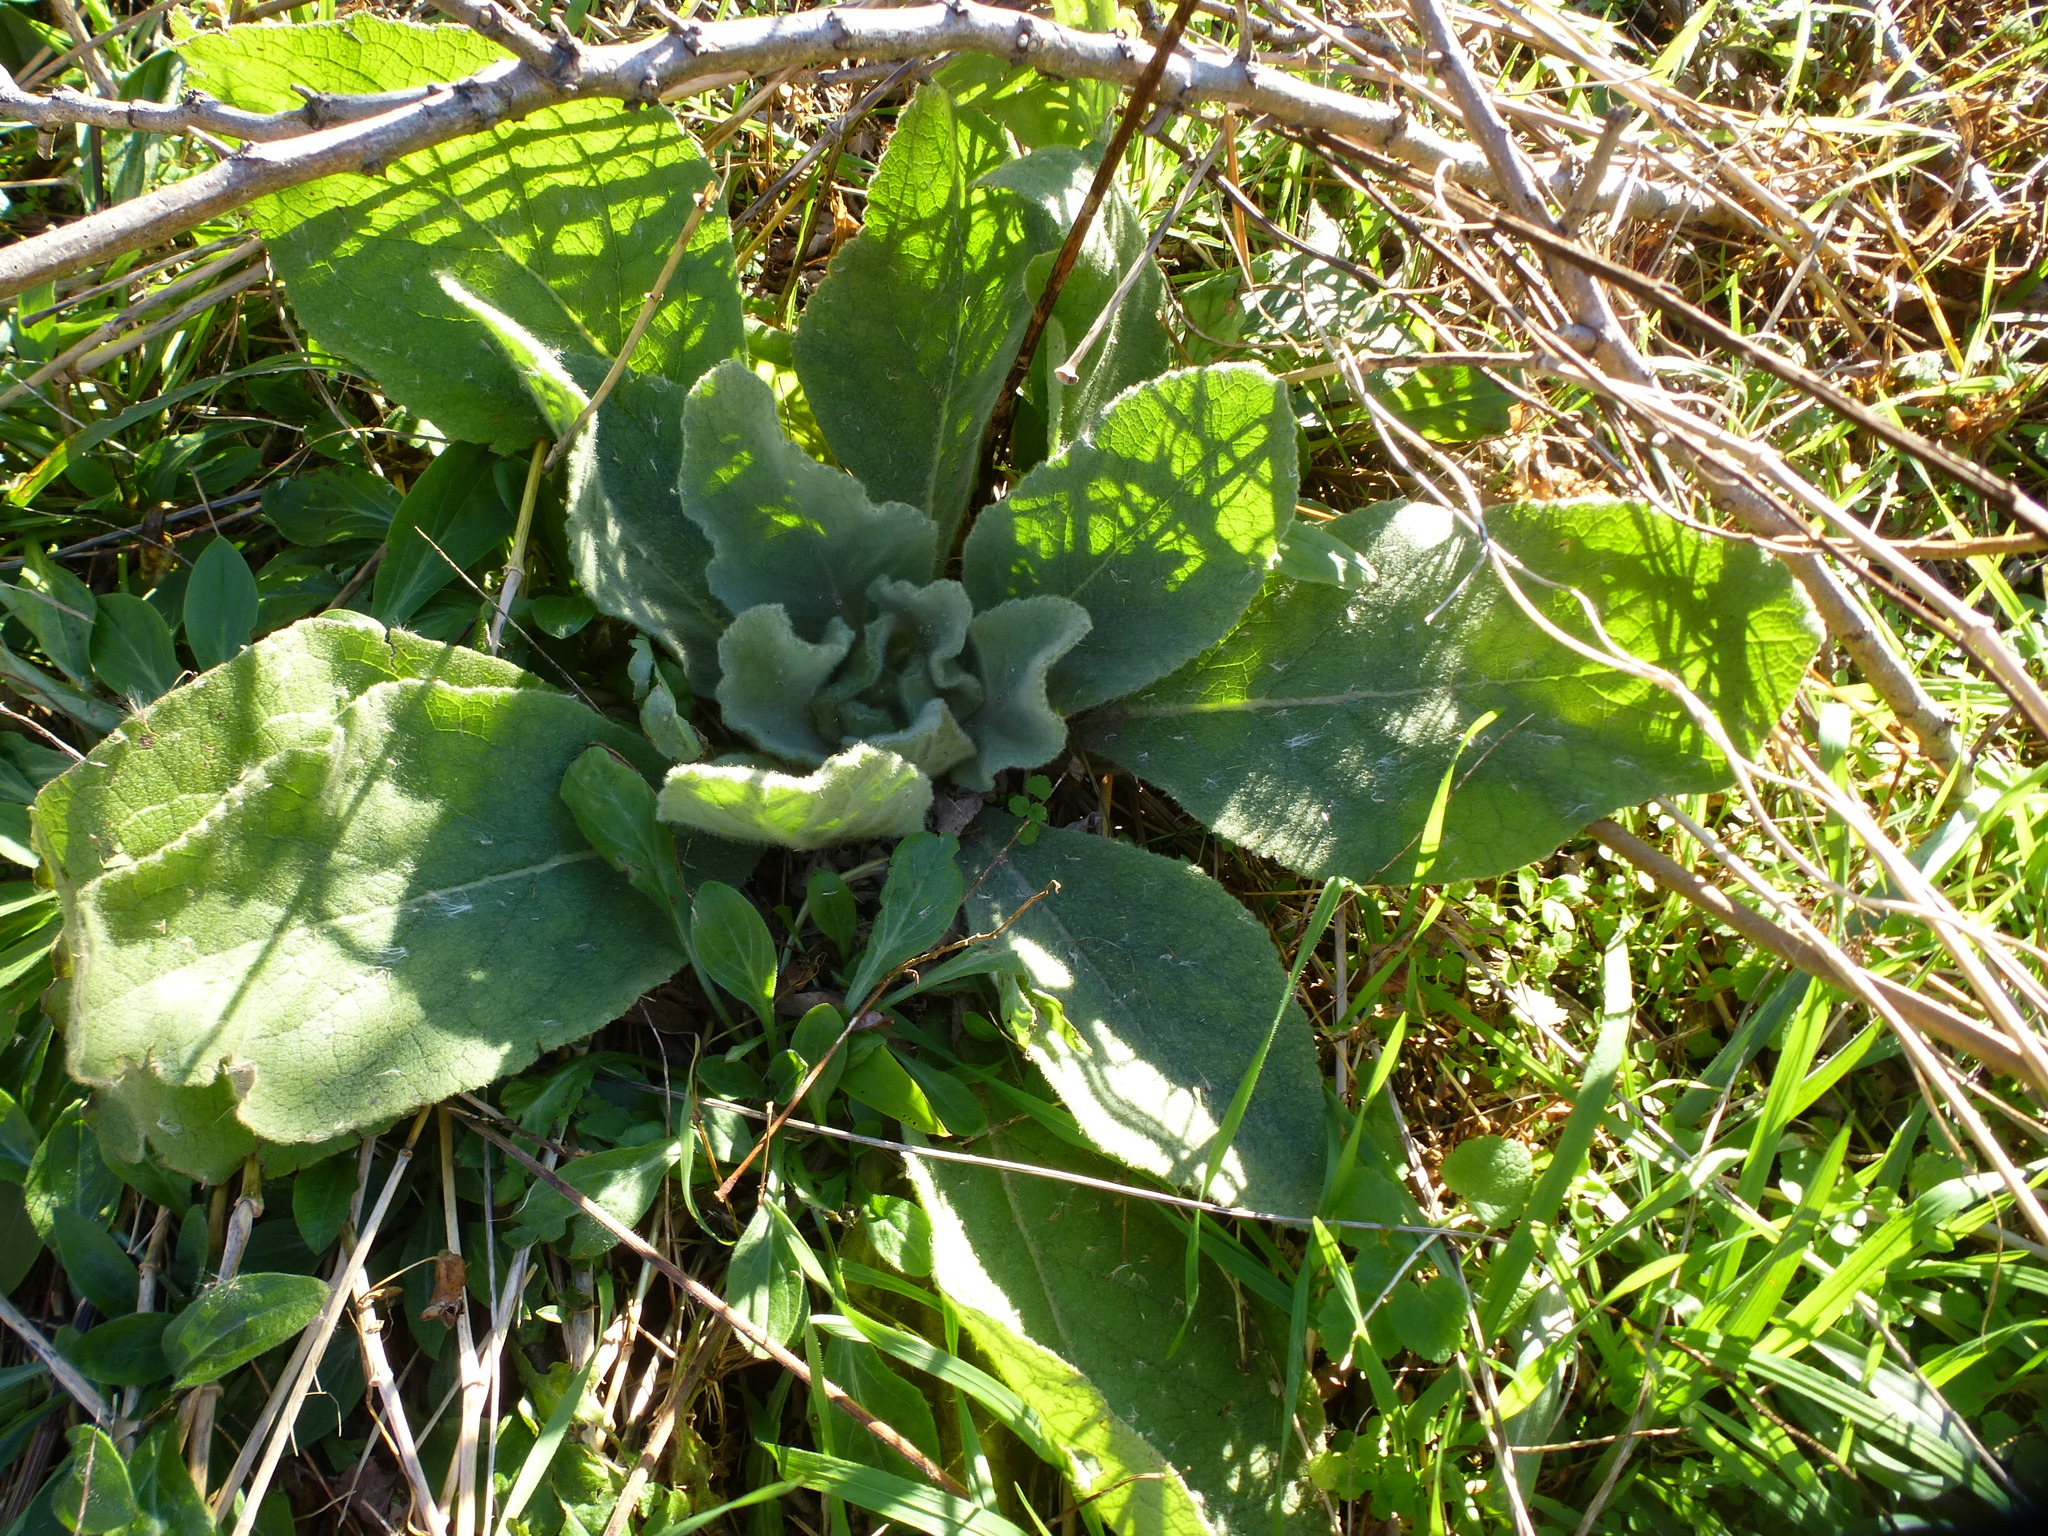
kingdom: Plantae
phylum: Tracheophyta
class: Magnoliopsida
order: Lamiales
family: Scrophulariaceae
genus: Verbascum
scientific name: Verbascum thapsus
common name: Common mullein
